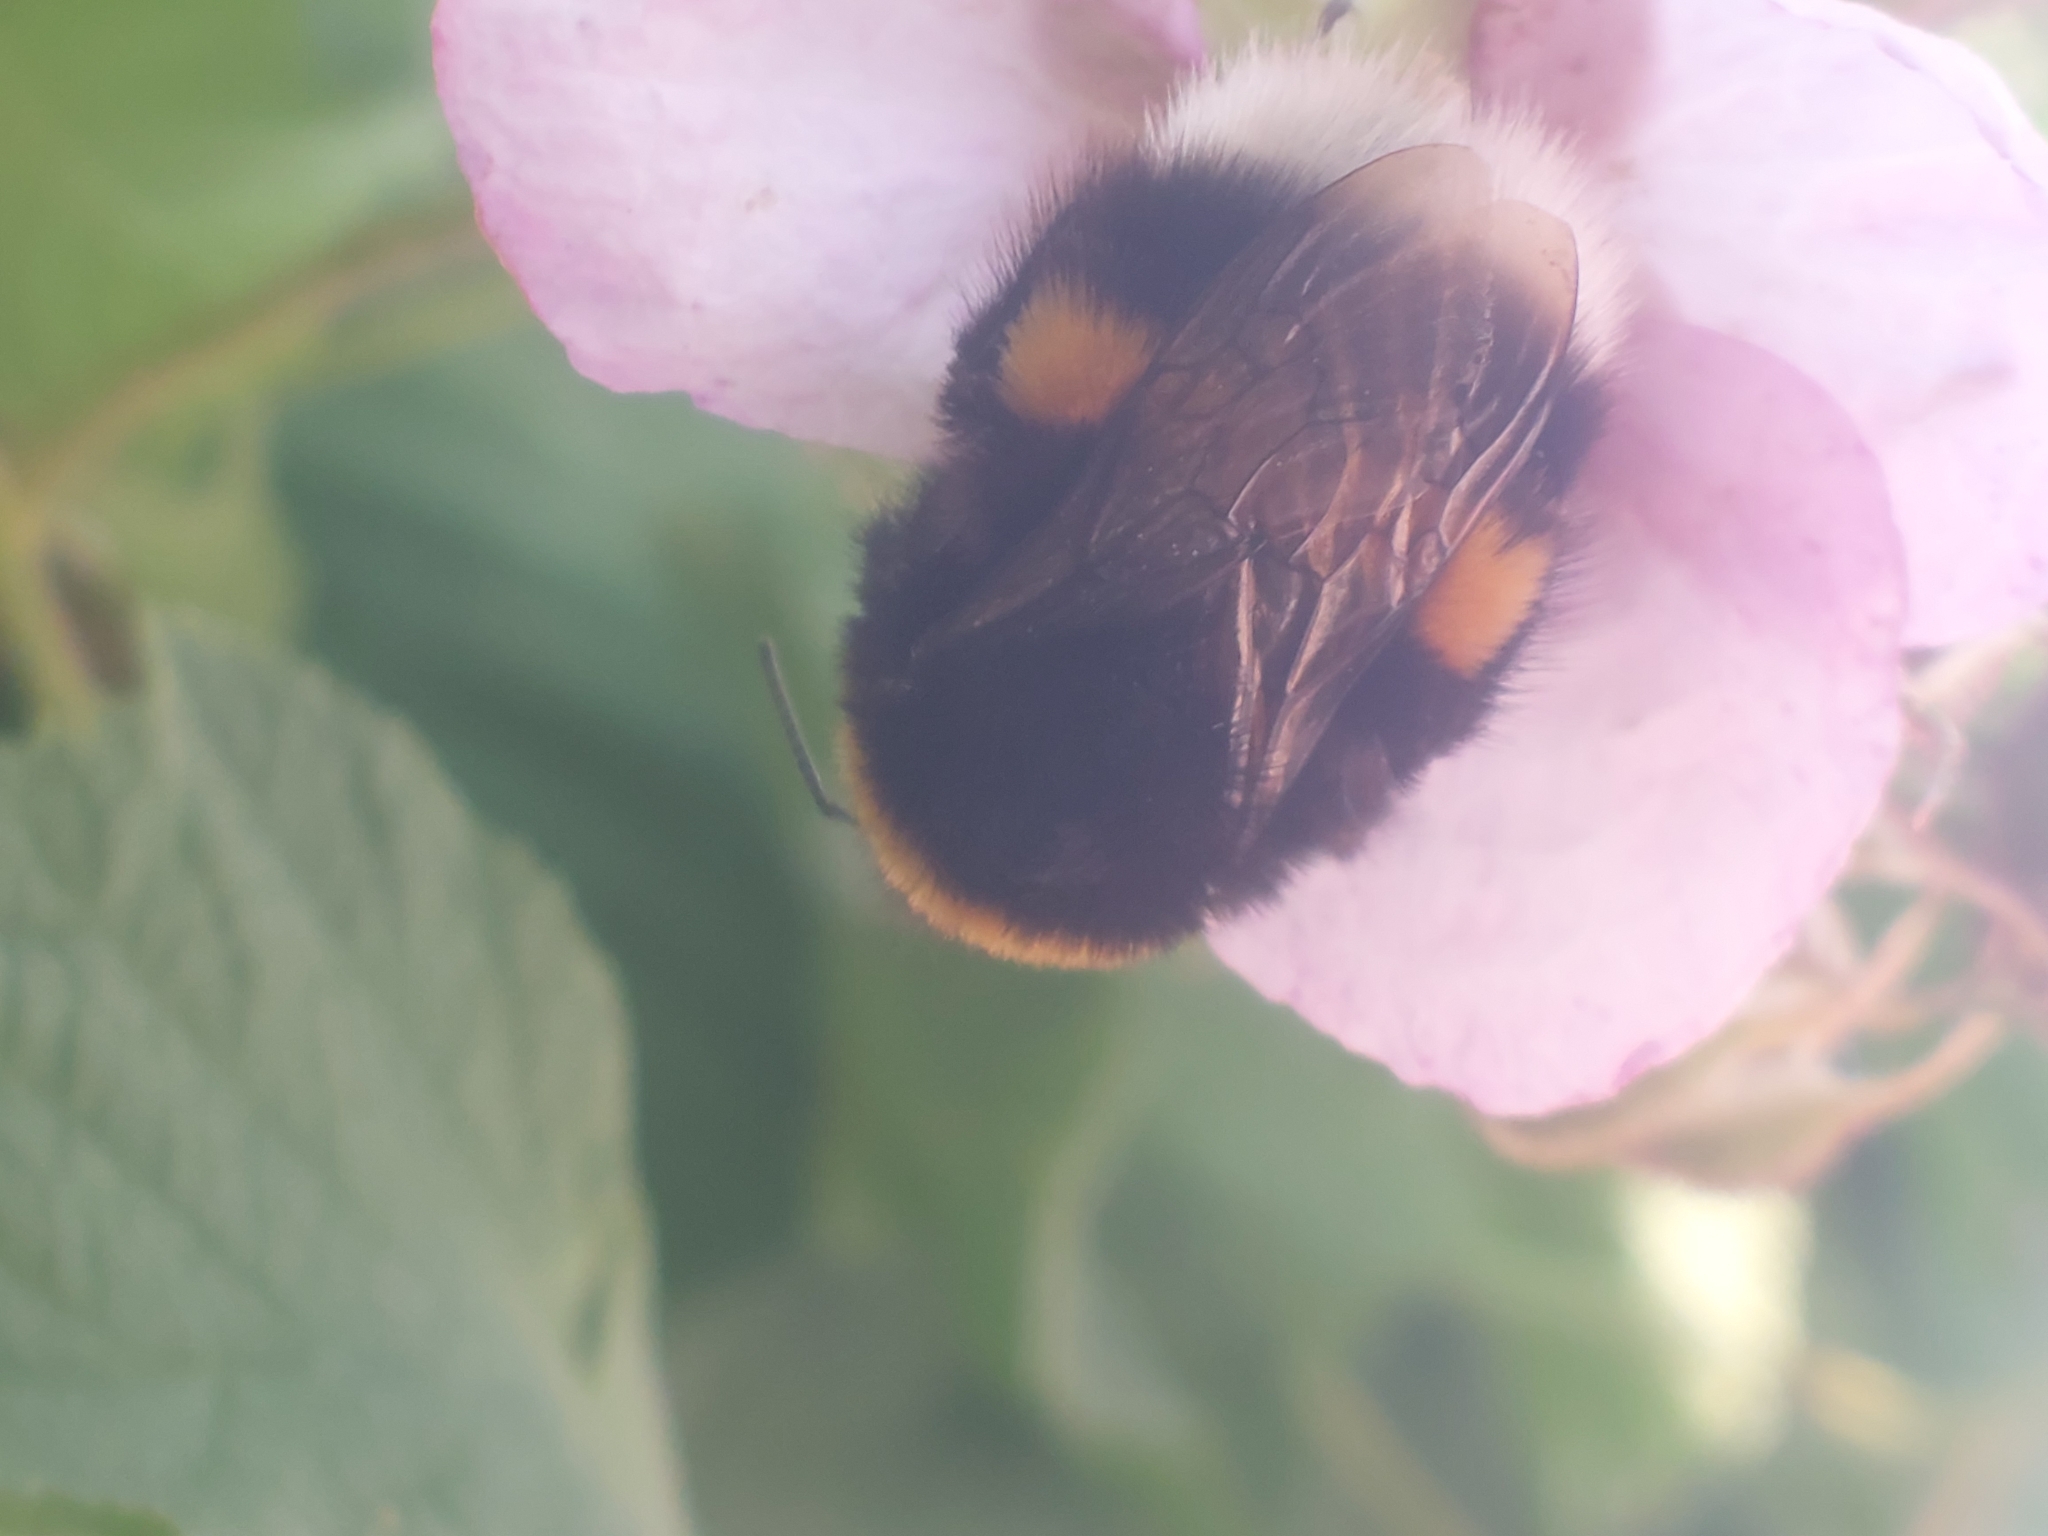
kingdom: Animalia
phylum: Arthropoda
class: Insecta
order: Hymenoptera
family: Apidae
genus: Bombus
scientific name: Bombus terrestris
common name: Buff-tailed bumblebee
